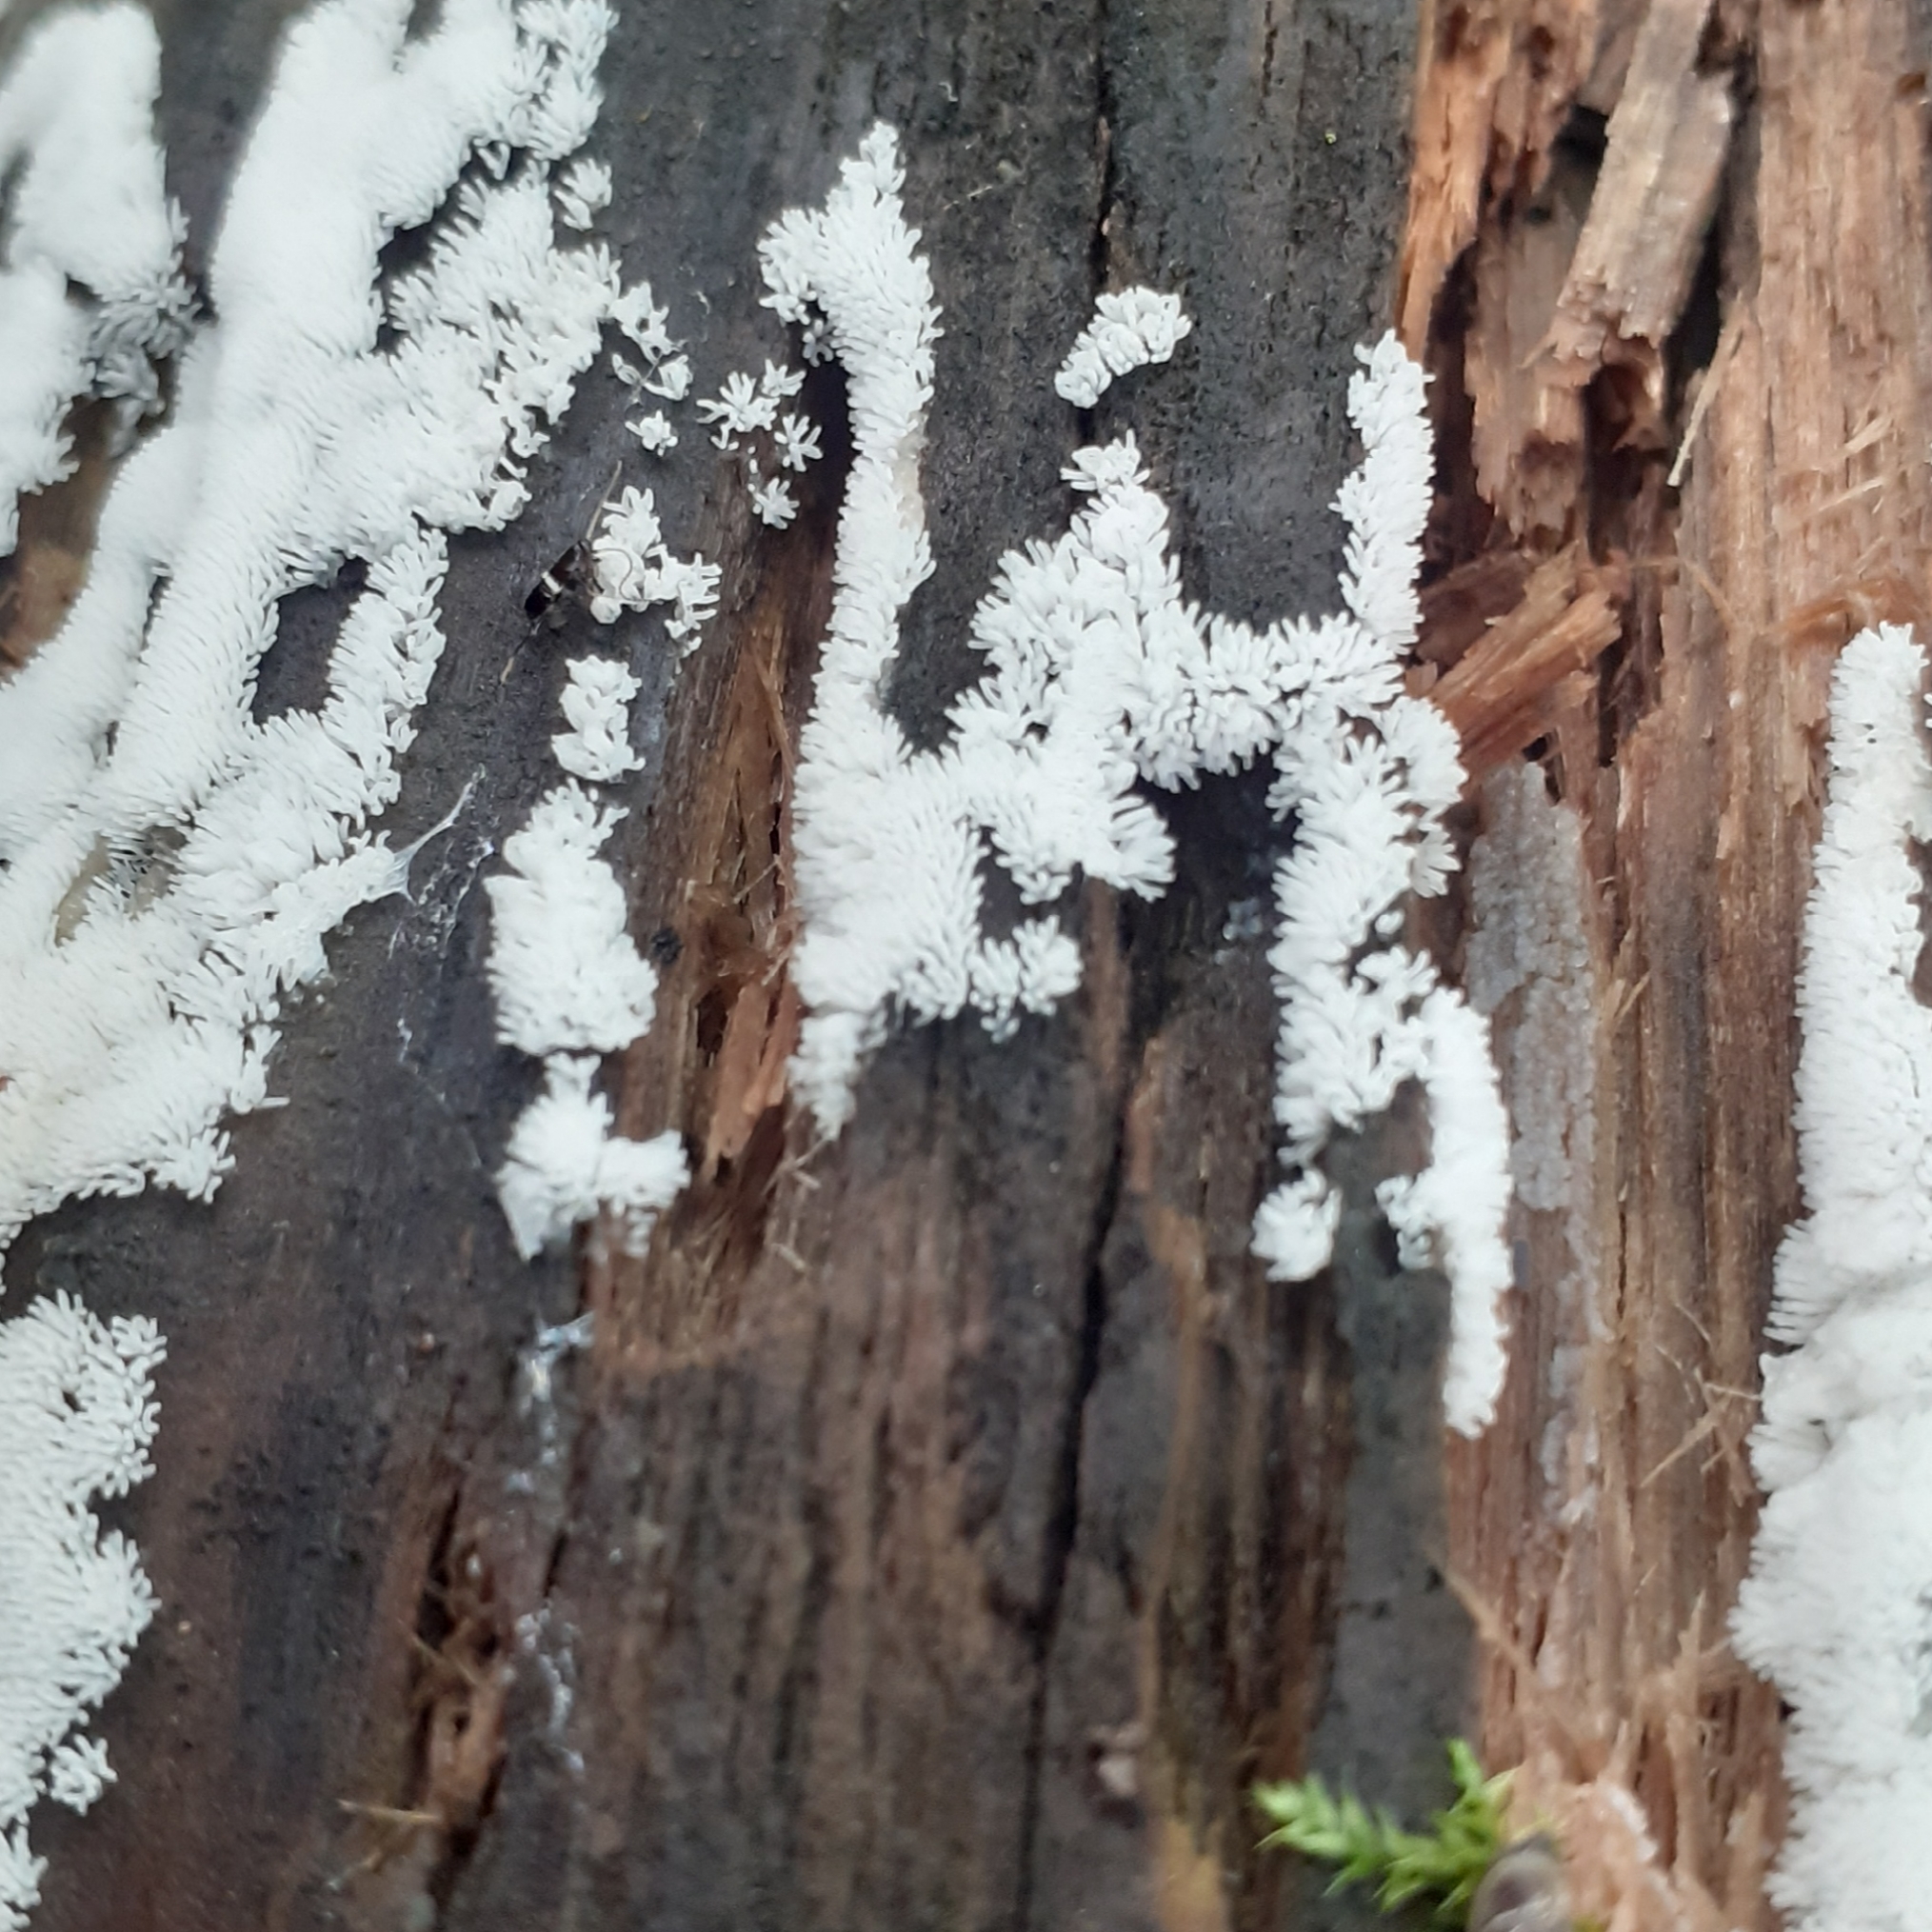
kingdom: Protozoa
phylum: Mycetozoa
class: Protosteliomycetes
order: Ceratiomyxales
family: Ceratiomyxaceae
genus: Ceratiomyxa
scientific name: Ceratiomyxa fruticulosa
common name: Honeycomb coral slime mold
